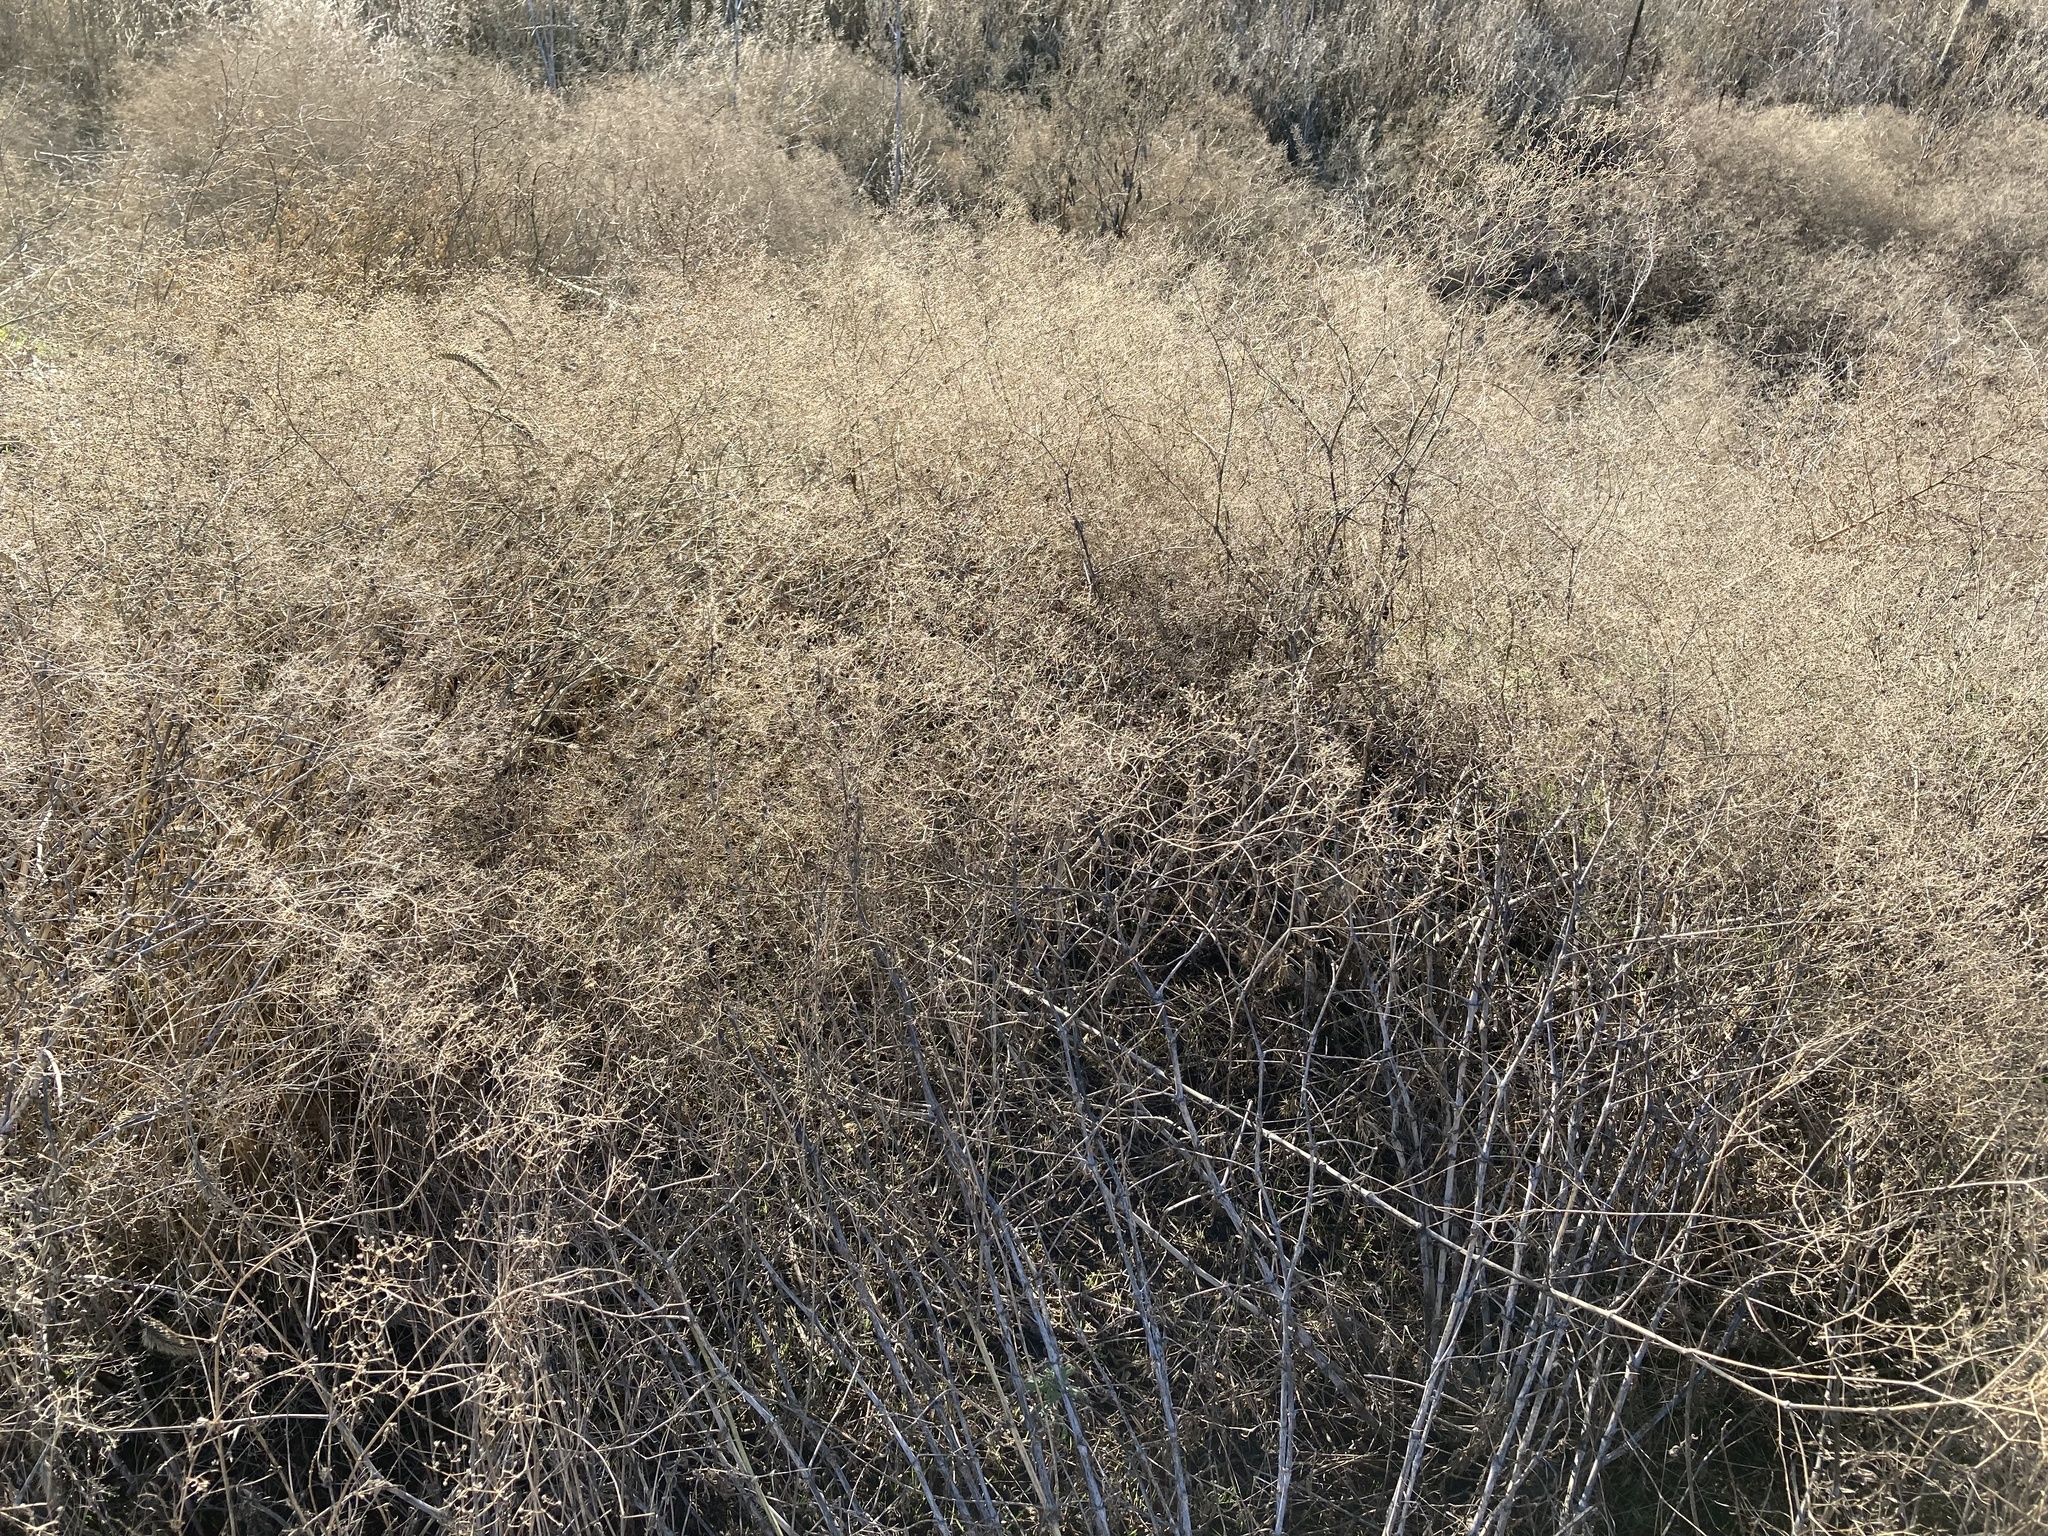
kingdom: Plantae
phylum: Tracheophyta
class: Magnoliopsida
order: Caryophyllales
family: Caryophyllaceae
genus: Gypsophila
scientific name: Gypsophila paniculata
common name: Baby's-breath
